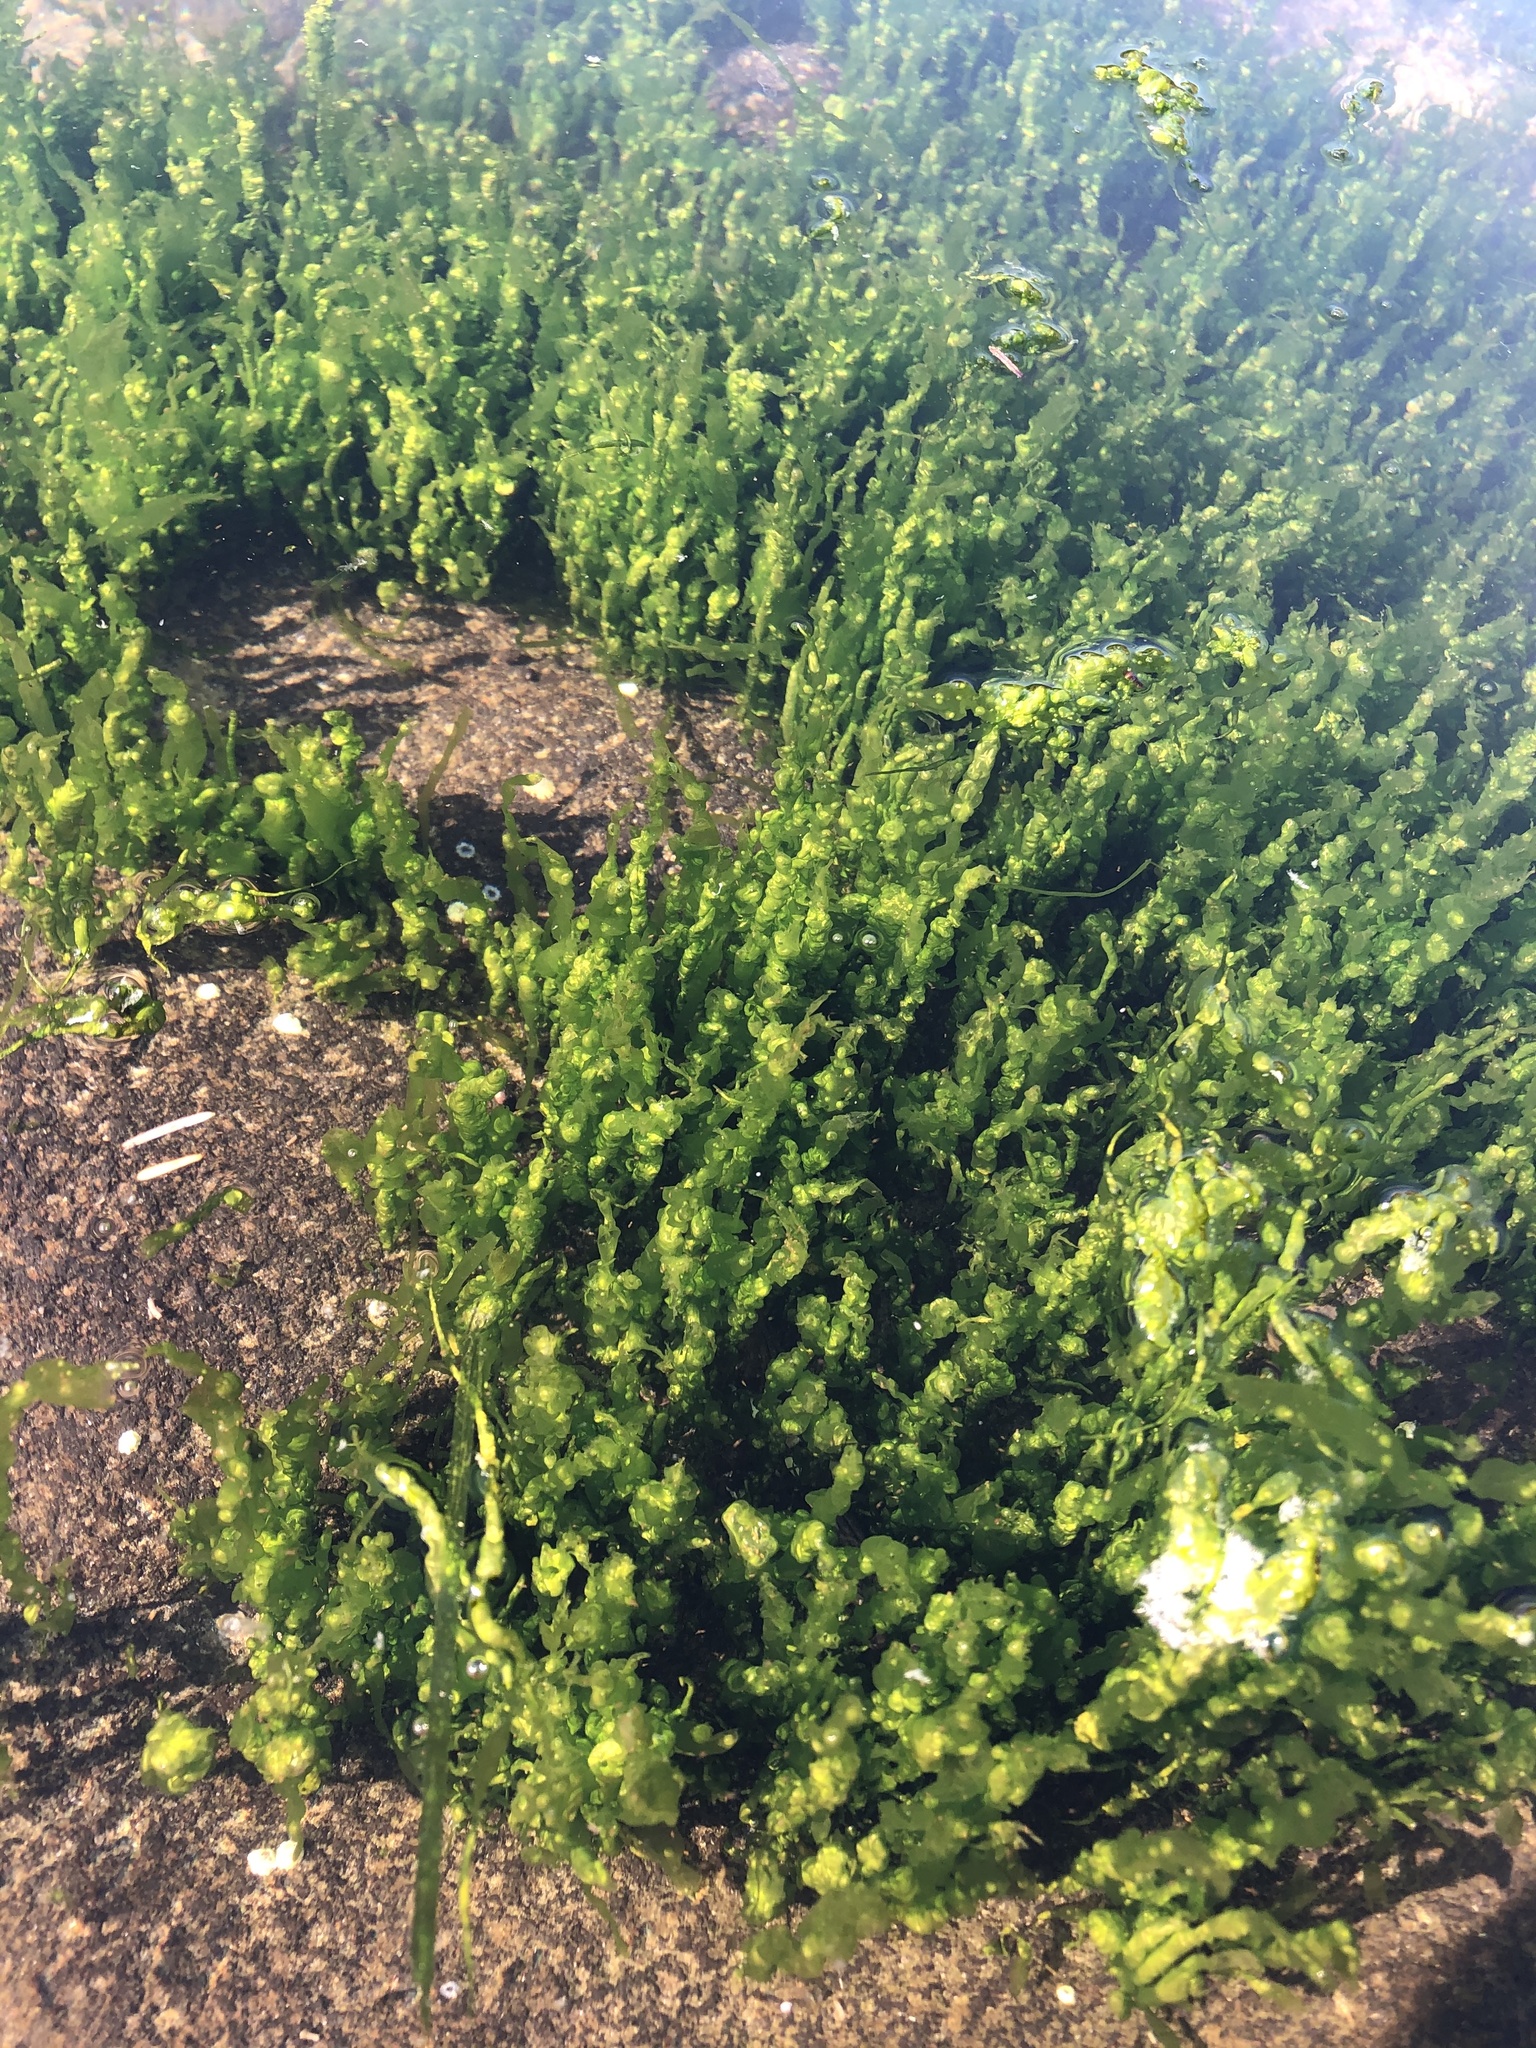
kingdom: Plantae
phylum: Chlorophyta
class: Ulvophyceae
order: Ulvales
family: Ulvaceae
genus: Ulva
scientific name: Ulva intestinalis
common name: Gut weed
